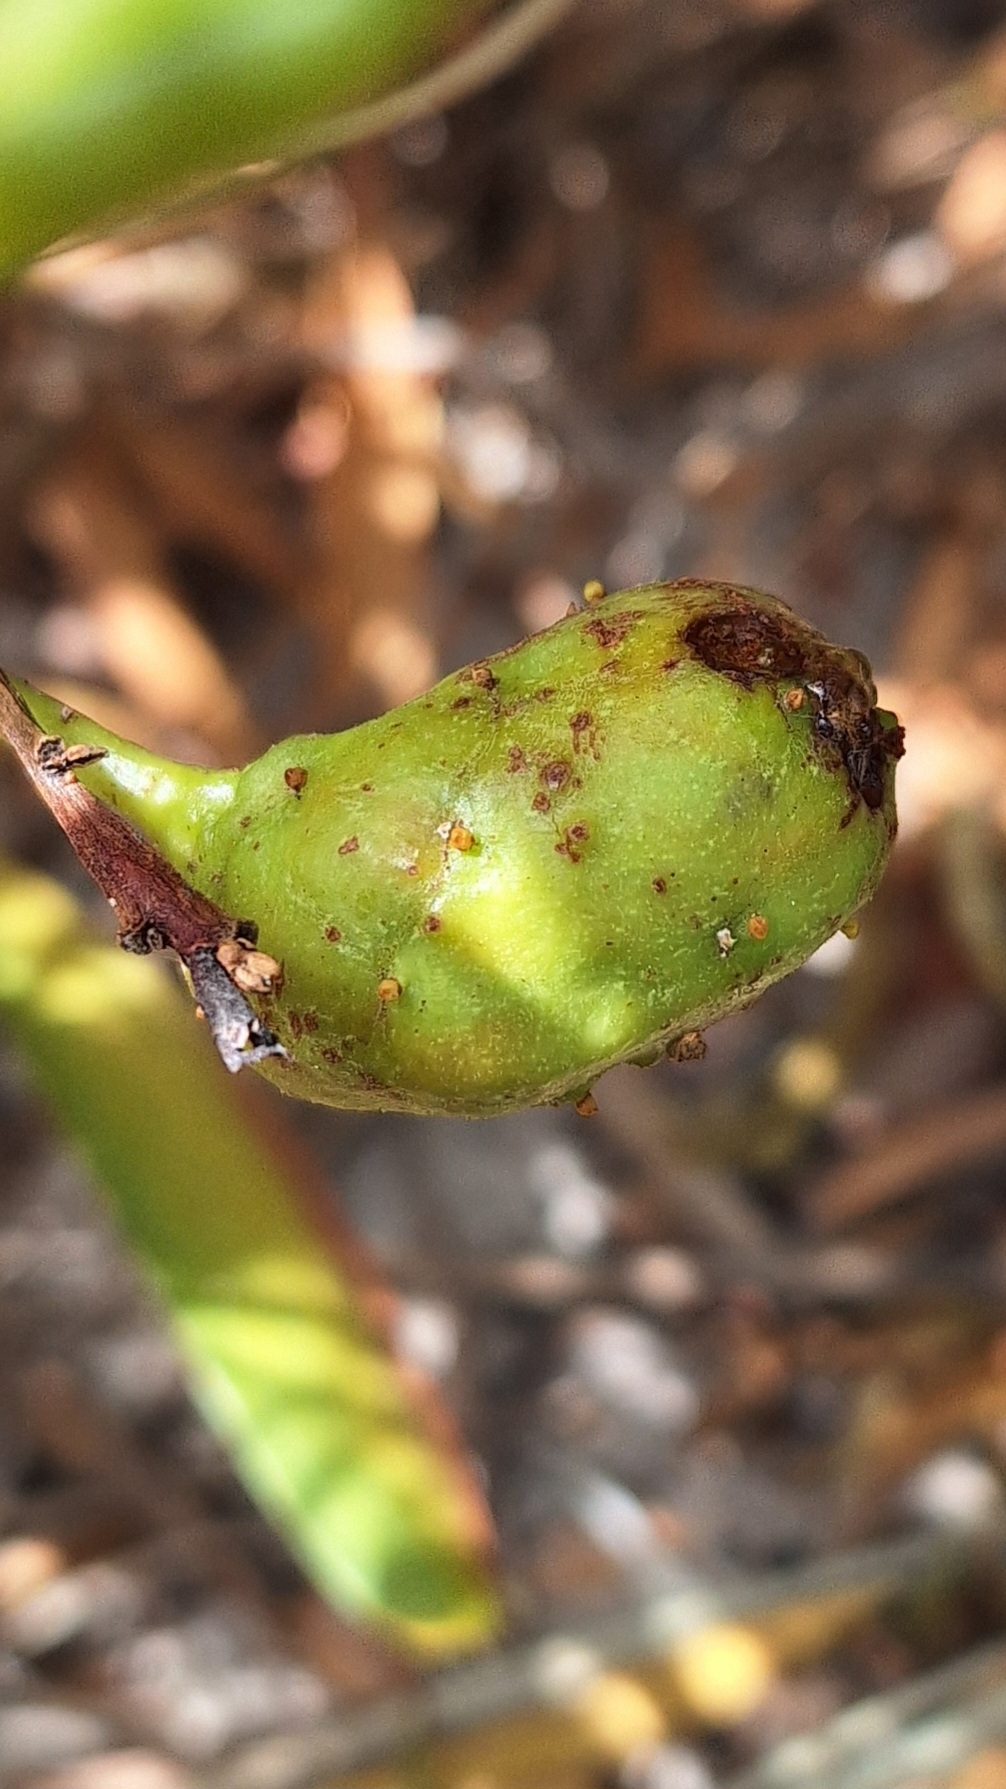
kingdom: Animalia
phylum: Arthropoda
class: Insecta
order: Hymenoptera
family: Pteromalidae
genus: Trichilogaster
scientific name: Trichilogaster acaciaelongifoliae
